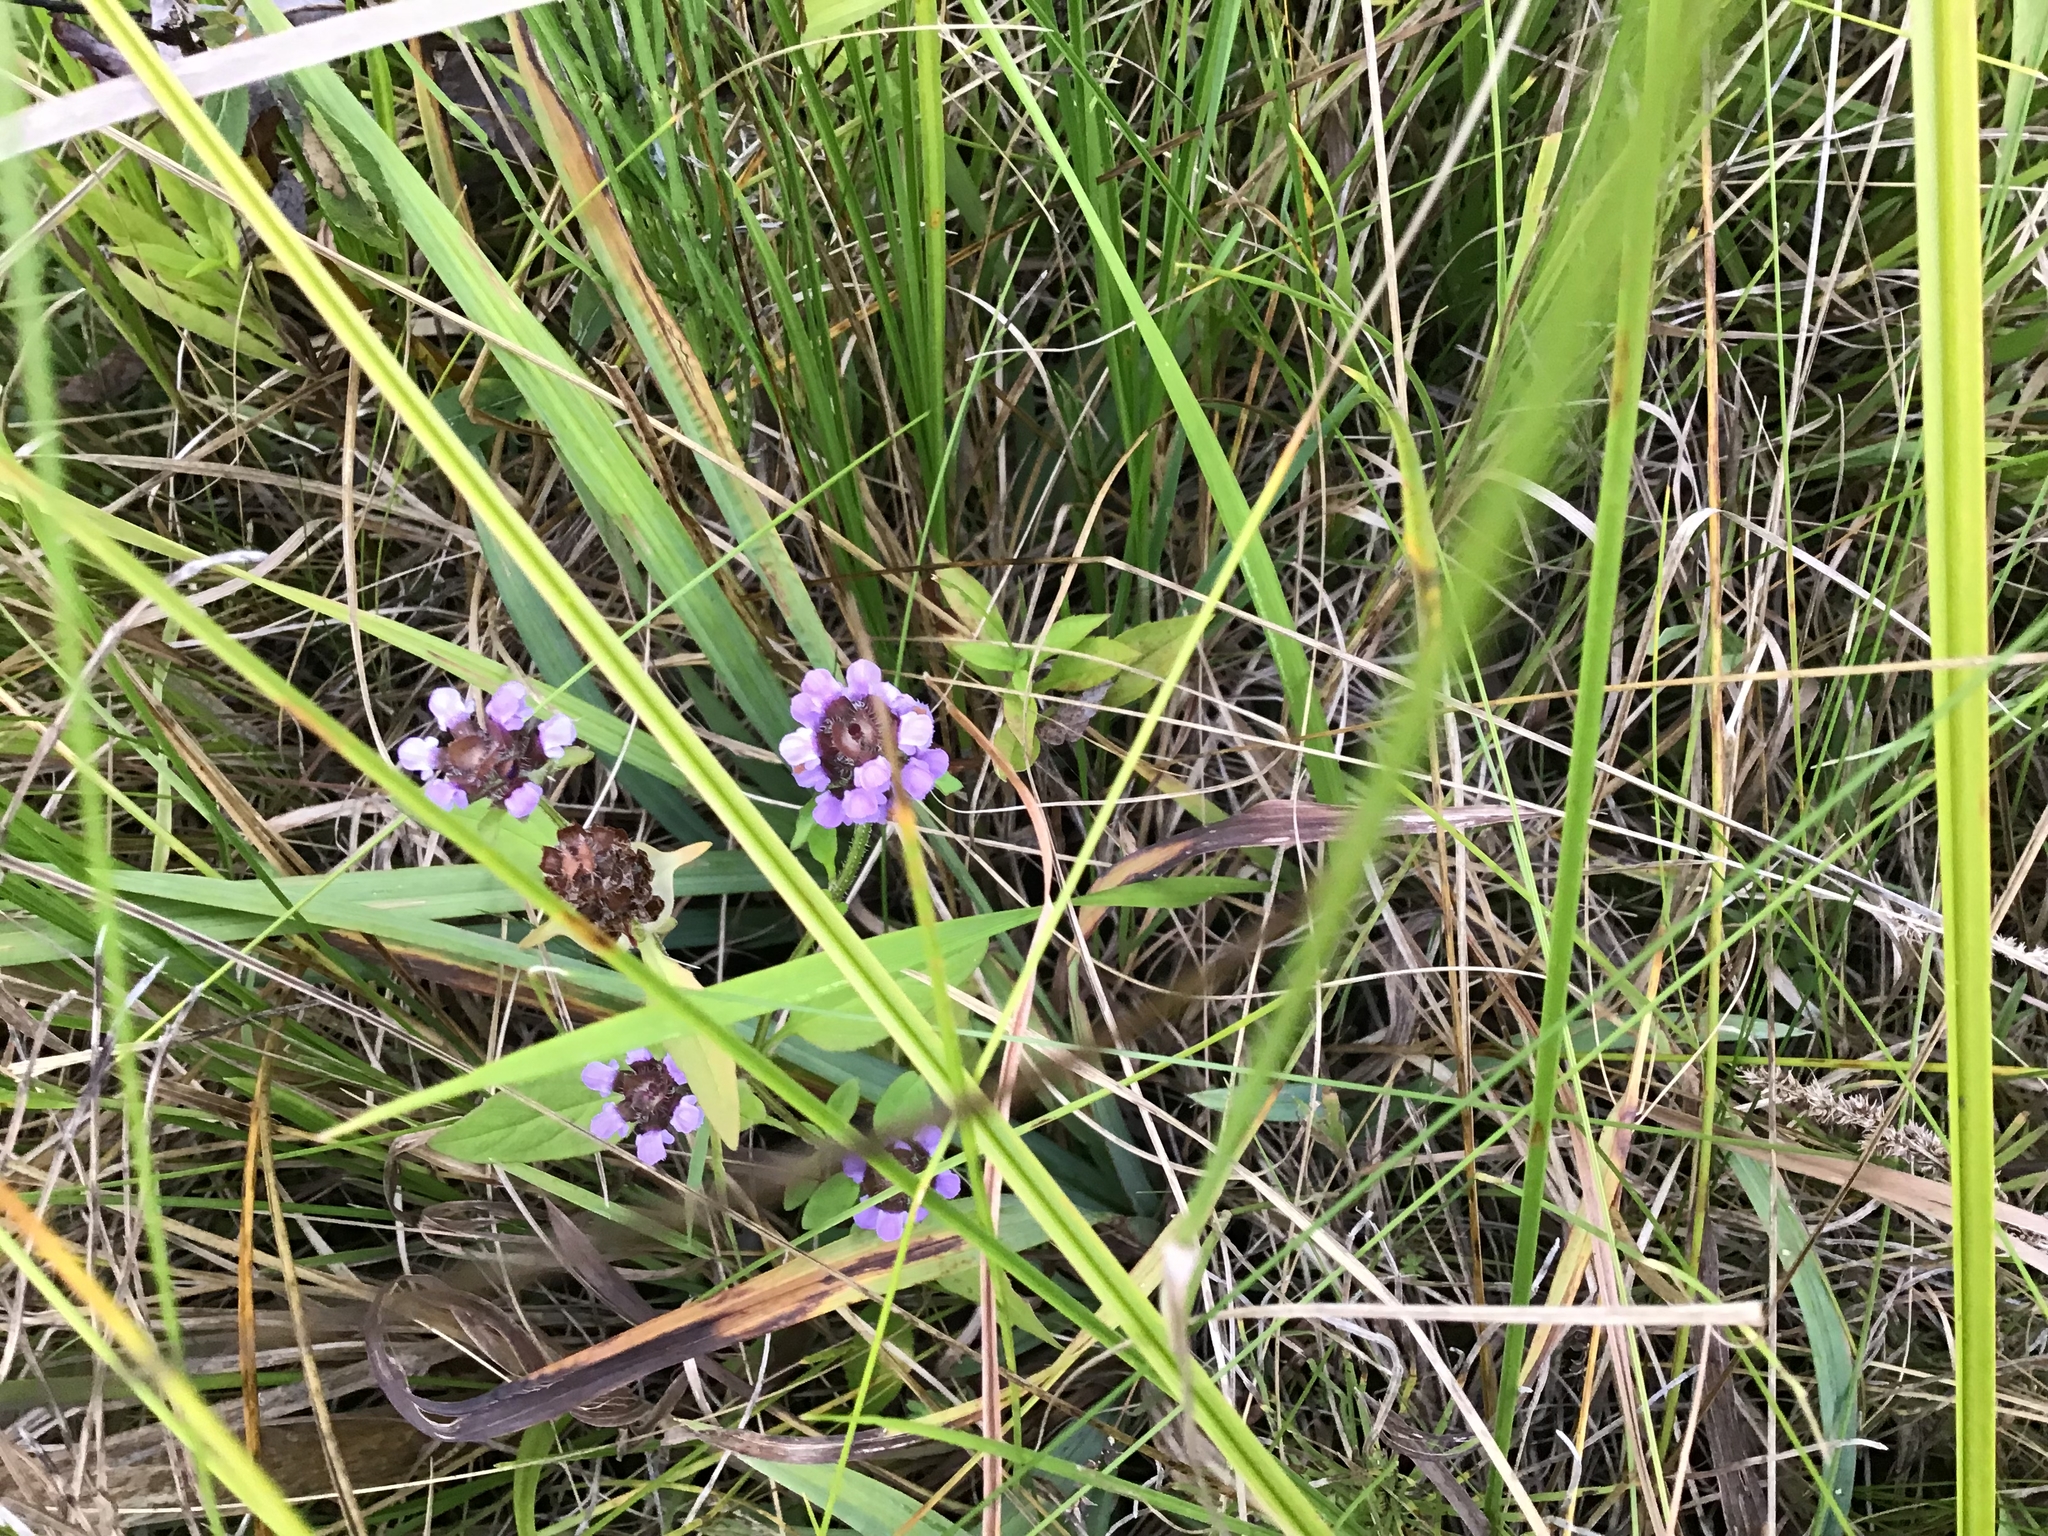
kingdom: Plantae
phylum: Tracheophyta
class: Magnoliopsida
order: Lamiales
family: Lamiaceae
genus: Prunella
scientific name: Prunella vulgaris
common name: Heal-all
